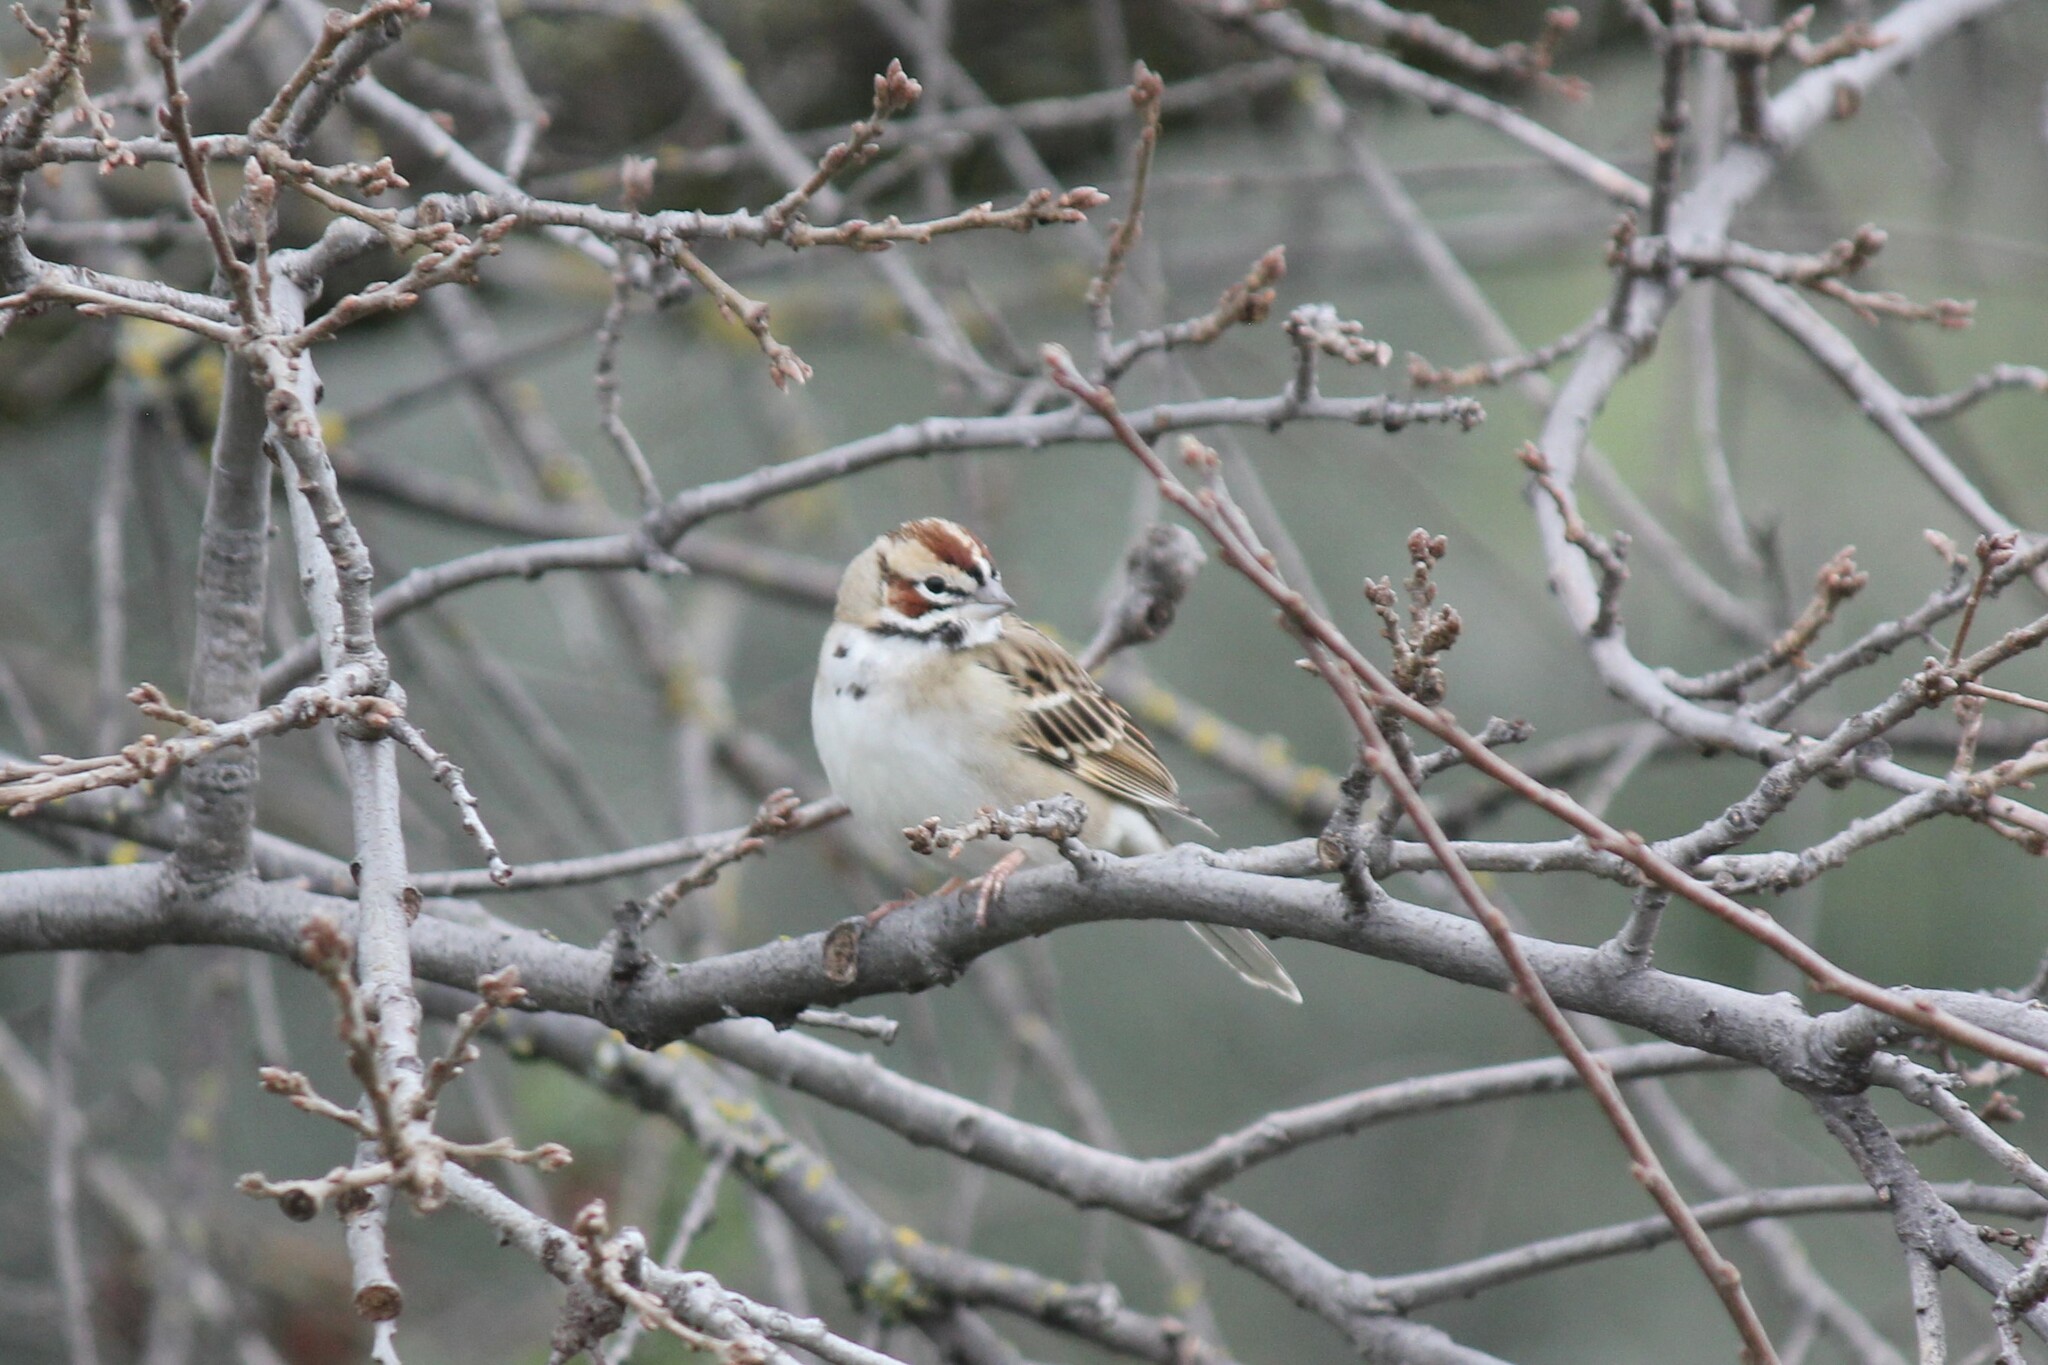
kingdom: Animalia
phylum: Chordata
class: Aves
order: Passeriformes
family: Passerellidae
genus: Chondestes
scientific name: Chondestes grammacus
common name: Lark sparrow
